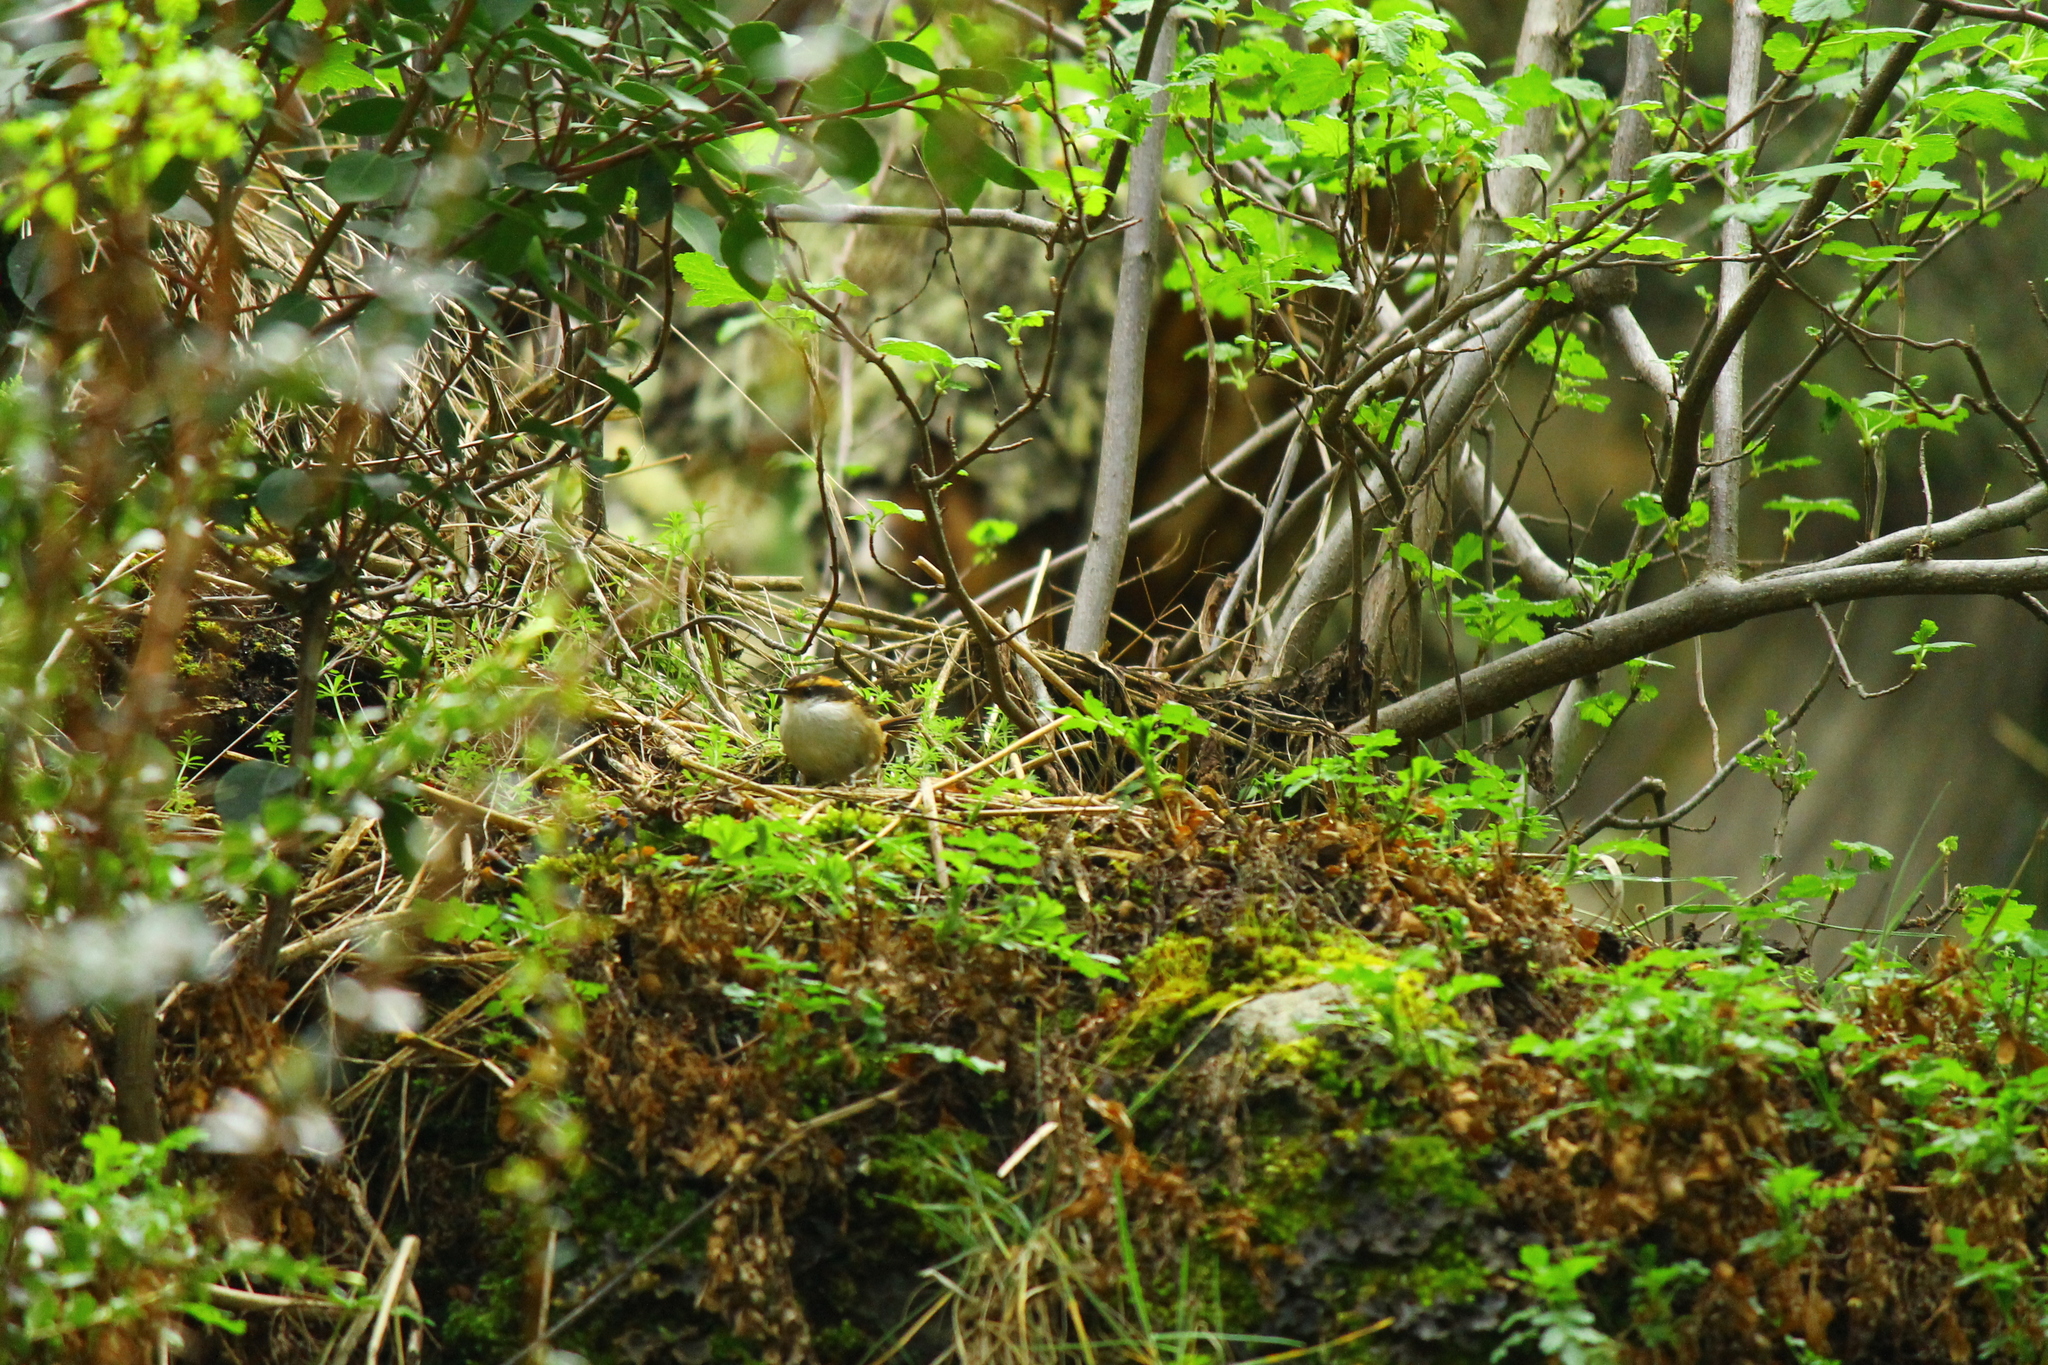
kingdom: Animalia
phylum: Chordata
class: Aves
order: Passeriformes
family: Furnariidae
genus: Aphrastura
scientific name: Aphrastura spinicauda
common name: Thorn-tailed rayadito
